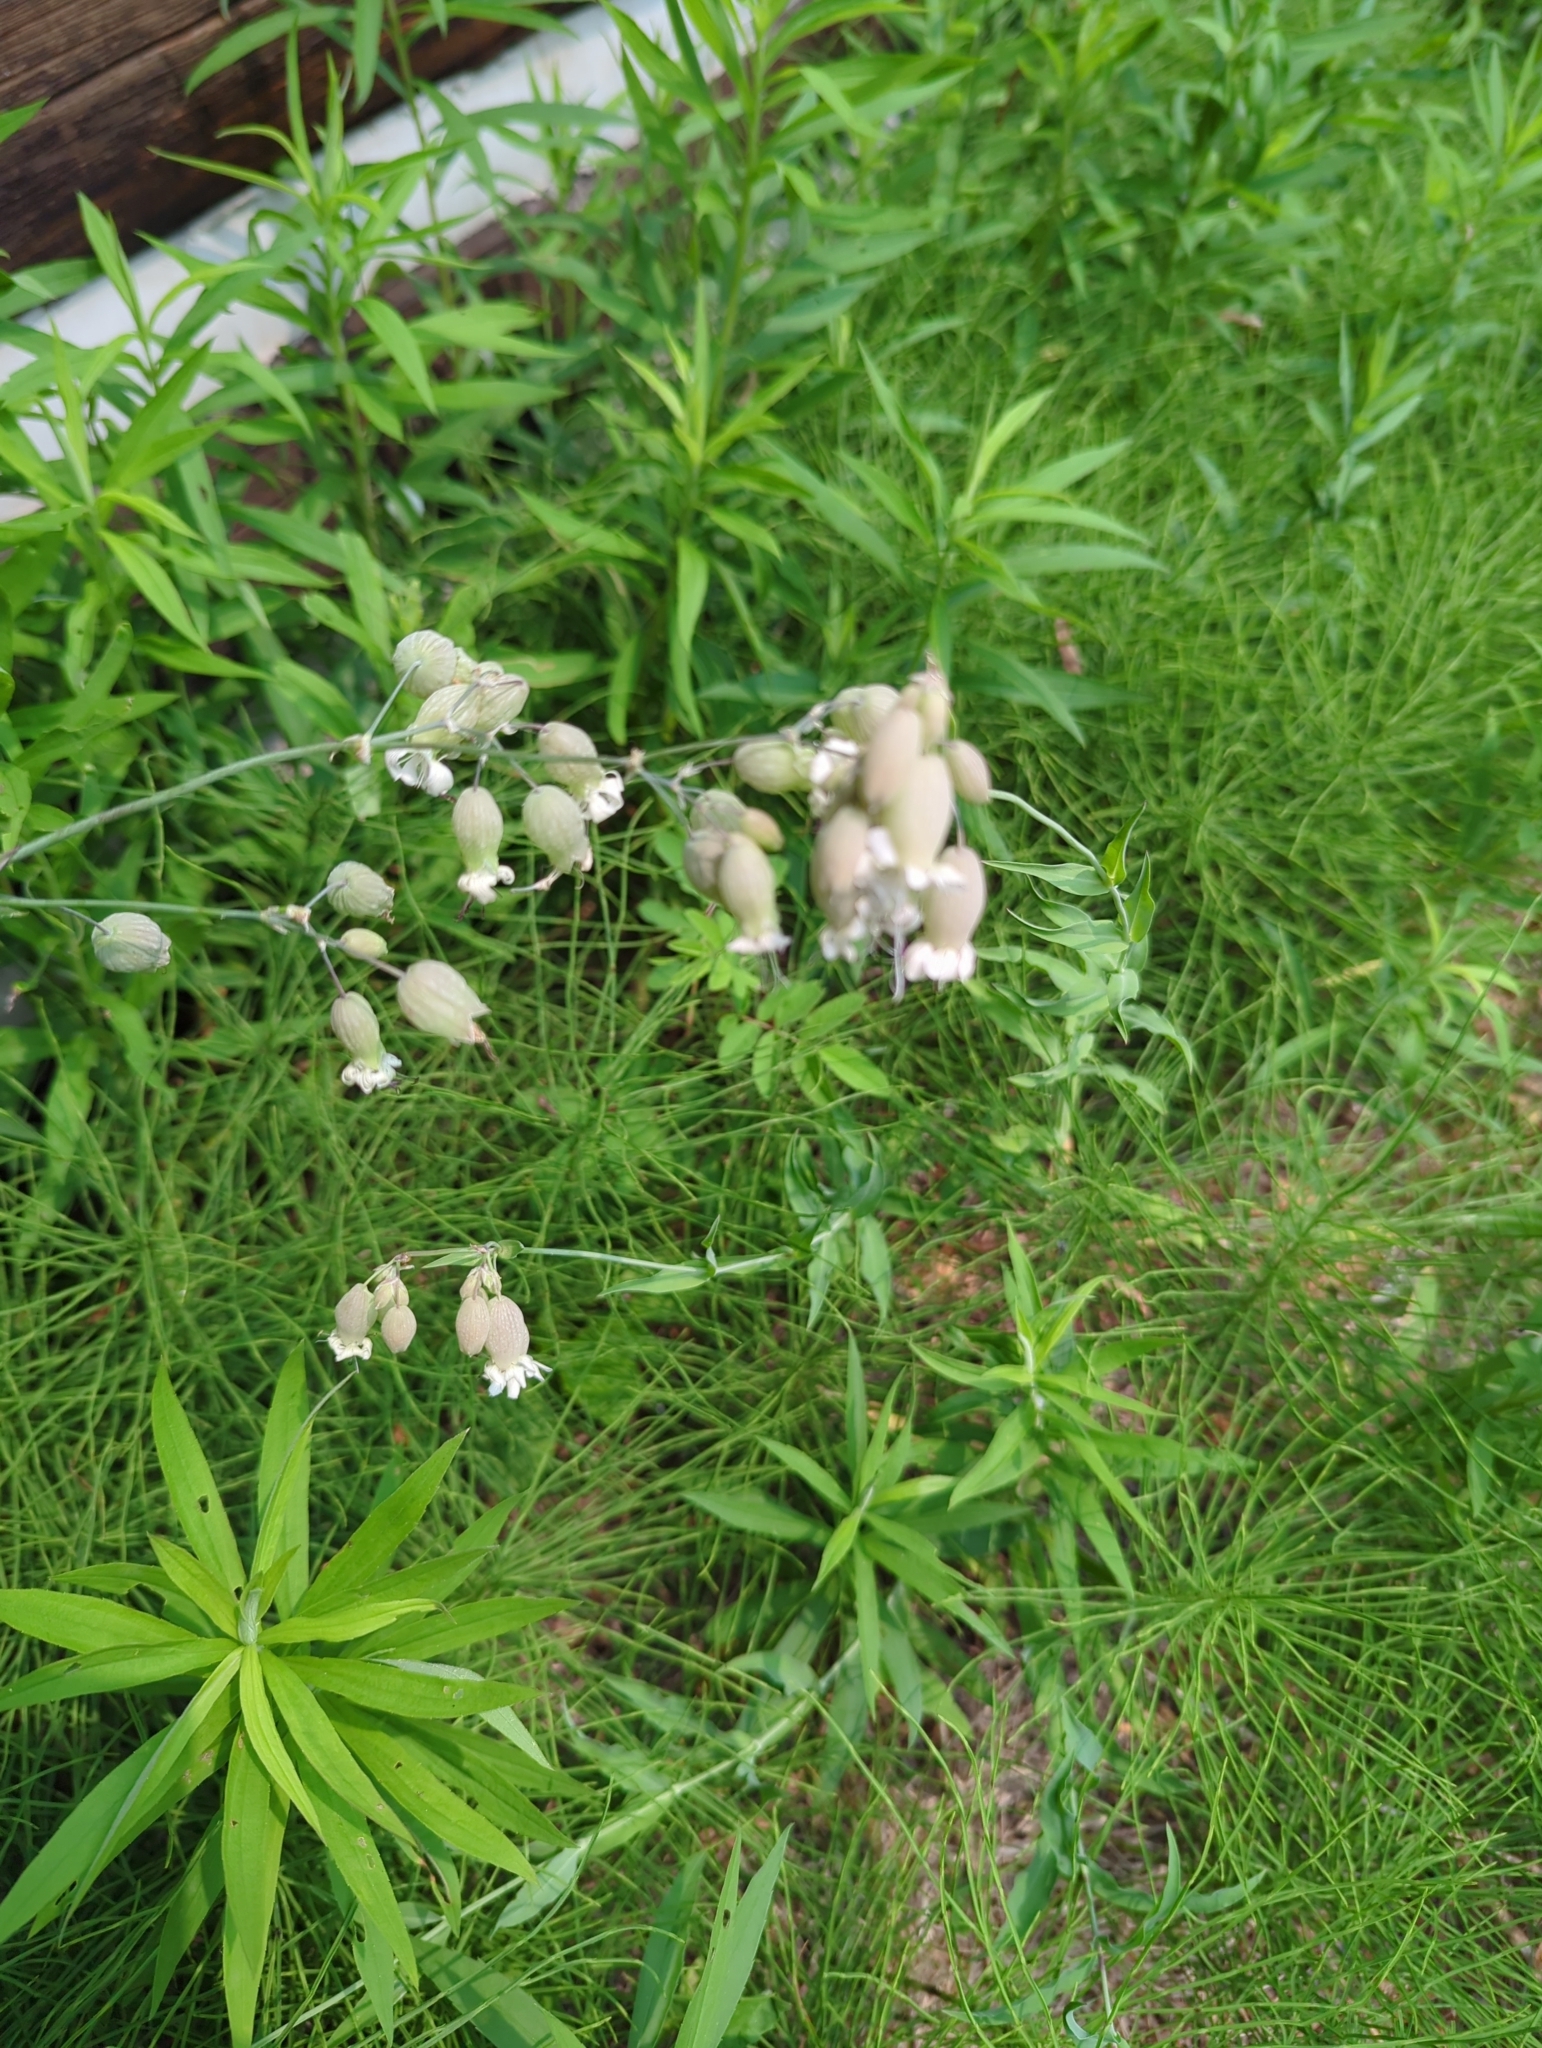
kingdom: Plantae
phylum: Tracheophyta
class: Magnoliopsida
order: Caryophyllales
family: Caryophyllaceae
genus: Silene
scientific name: Silene vulgaris
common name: Bladder campion
